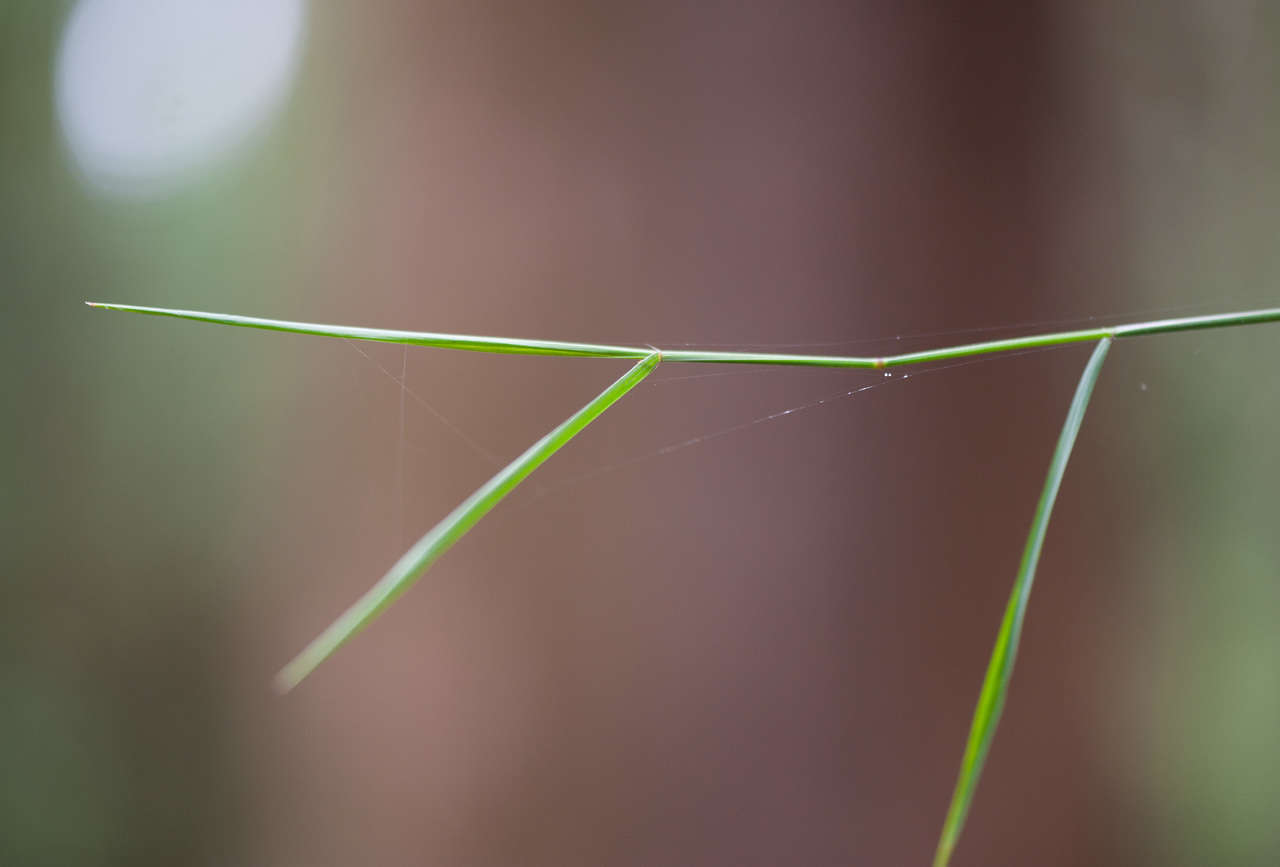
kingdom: Plantae
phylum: Tracheophyta
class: Liliopsida
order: Poales
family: Poaceae
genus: Tetrarrhena
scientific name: Tetrarrhena juncea
